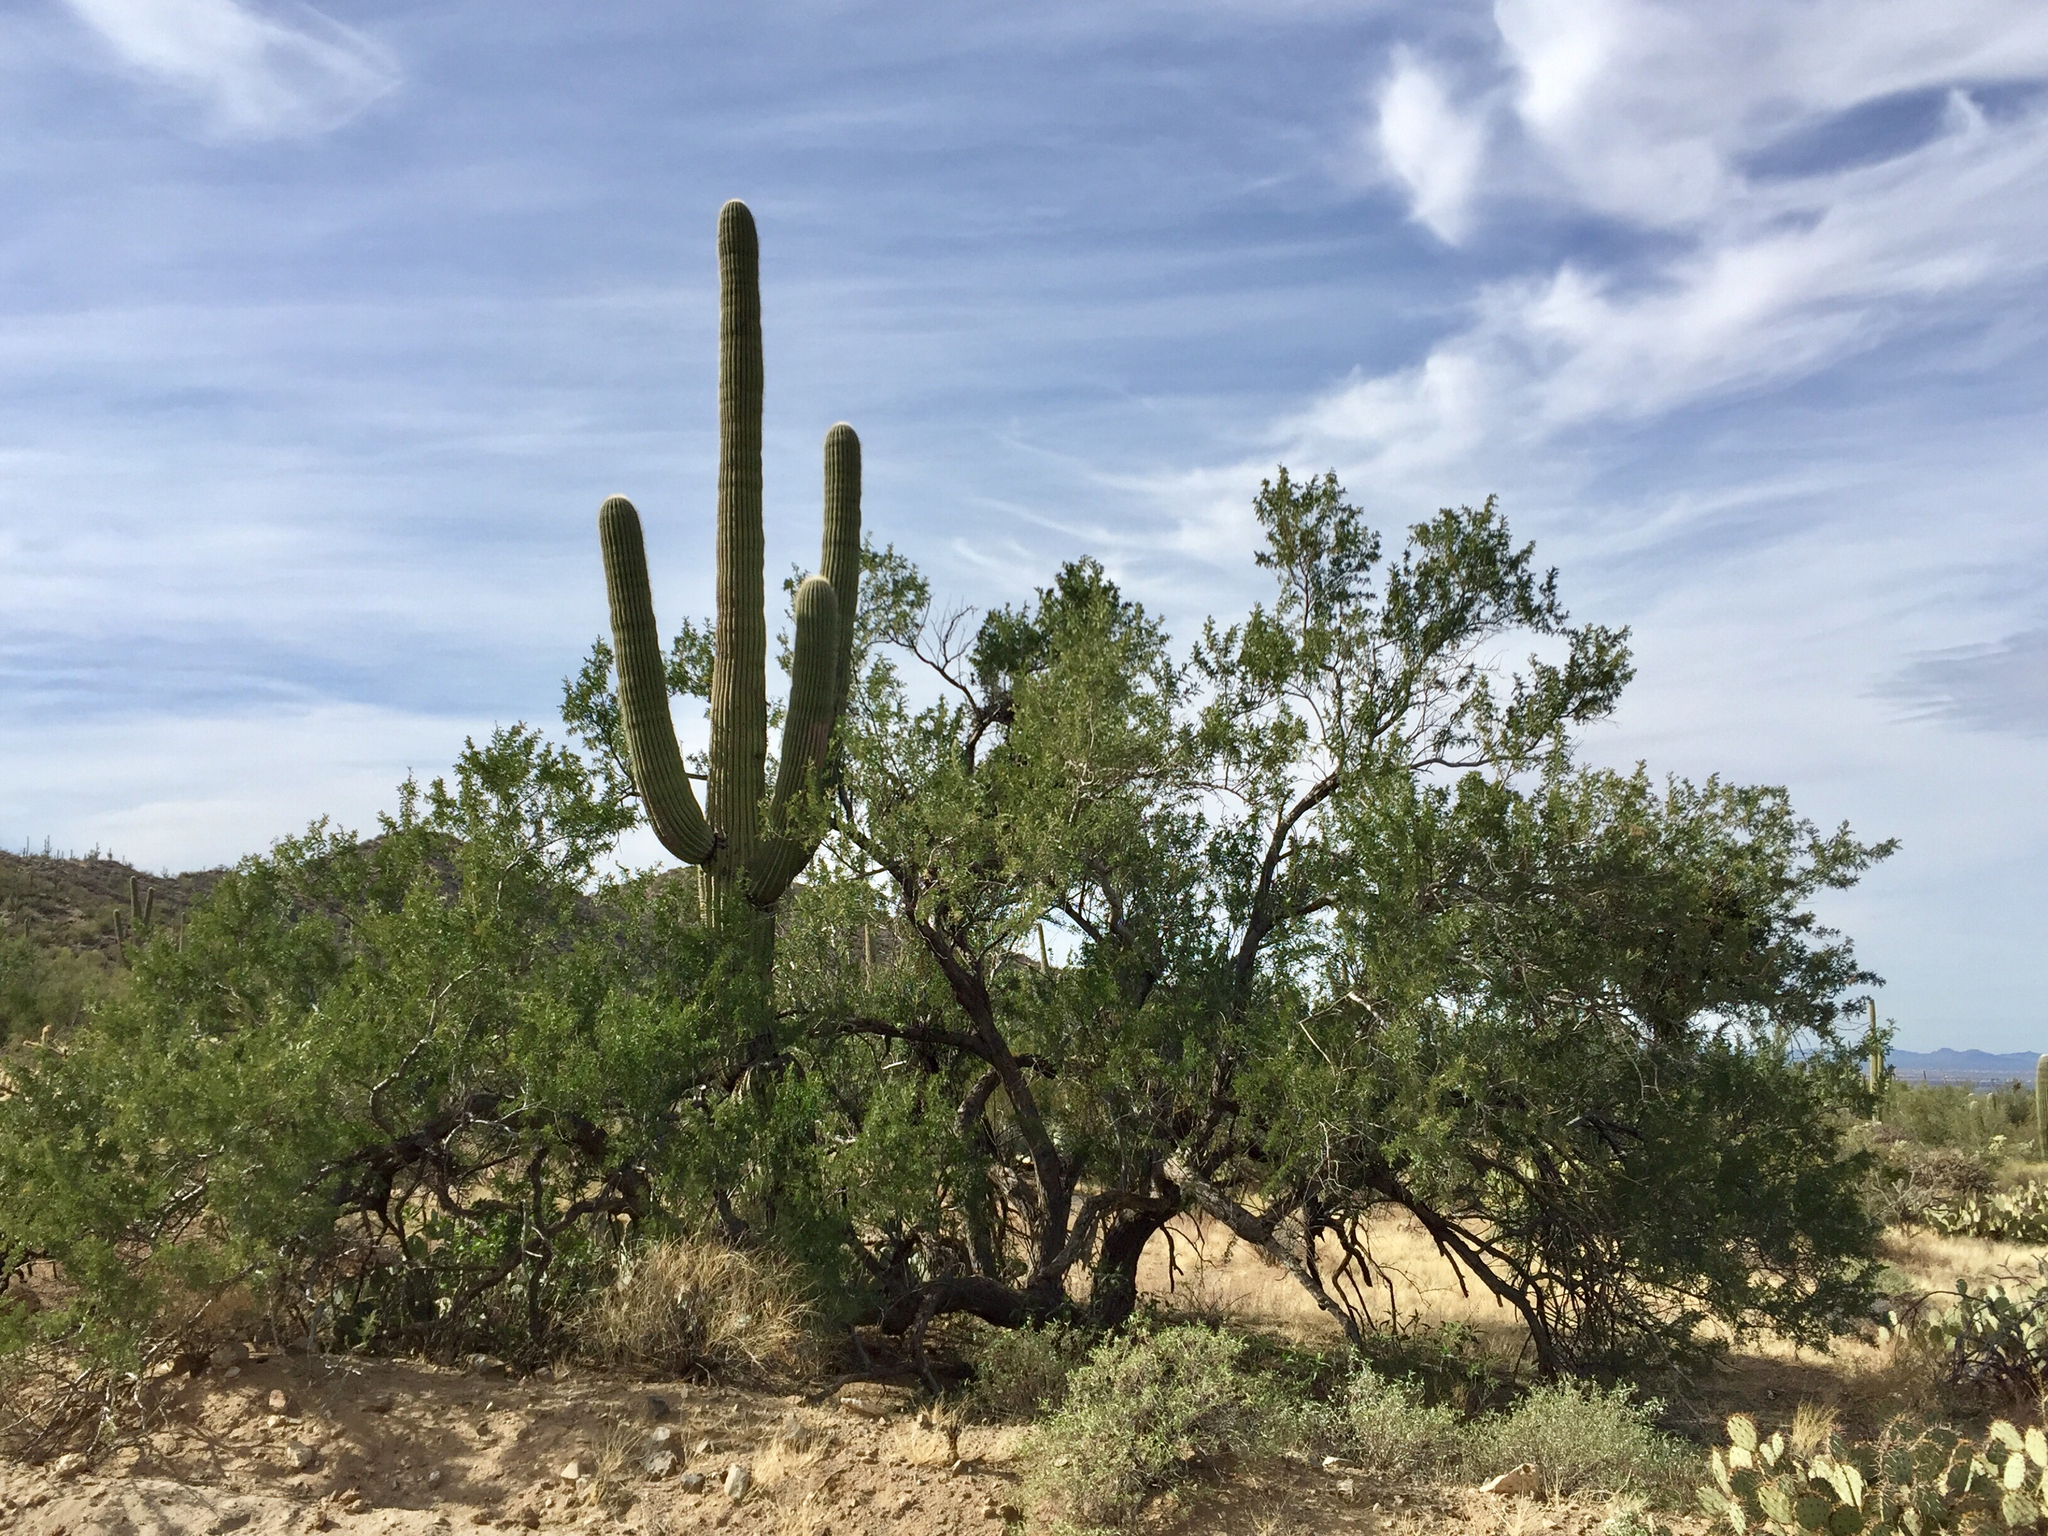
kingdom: Plantae
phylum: Tracheophyta
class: Magnoliopsida
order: Caryophyllales
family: Cactaceae
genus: Carnegiea
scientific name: Carnegiea gigantea
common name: Saguaro
